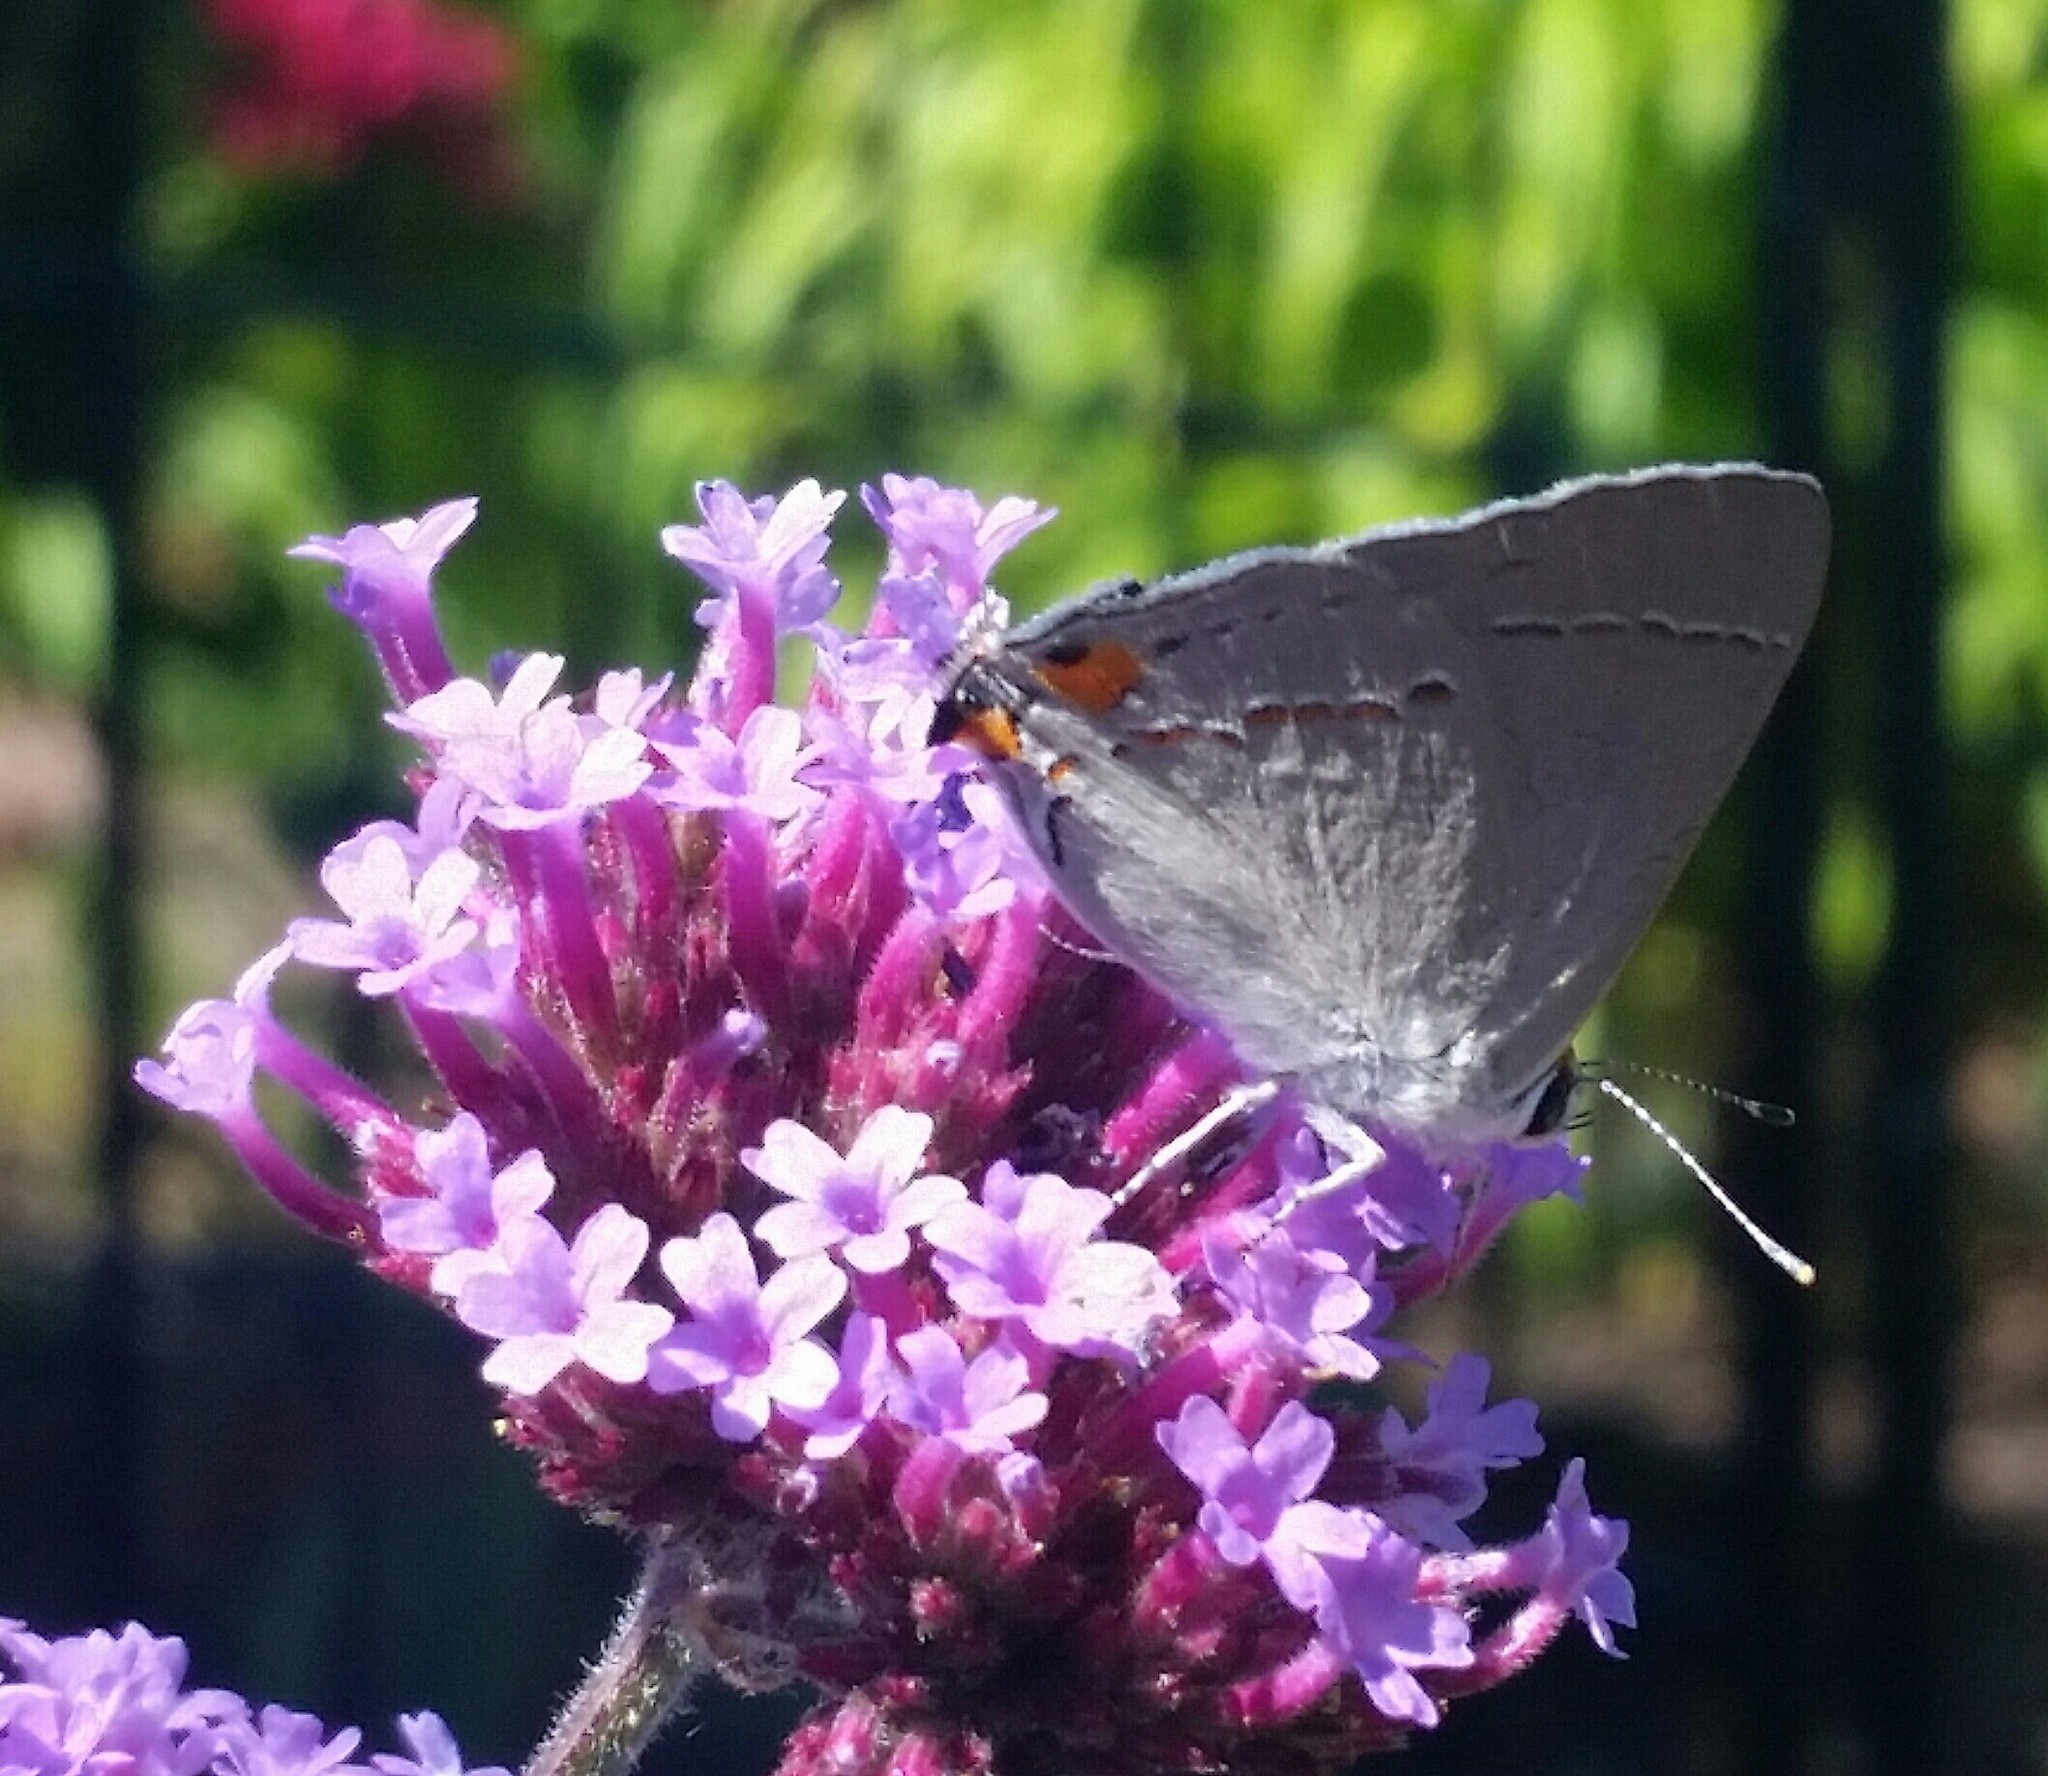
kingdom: Animalia
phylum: Arthropoda
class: Insecta
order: Lepidoptera
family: Lycaenidae
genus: Strymon
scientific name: Strymon melinus
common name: Gray hairstreak
